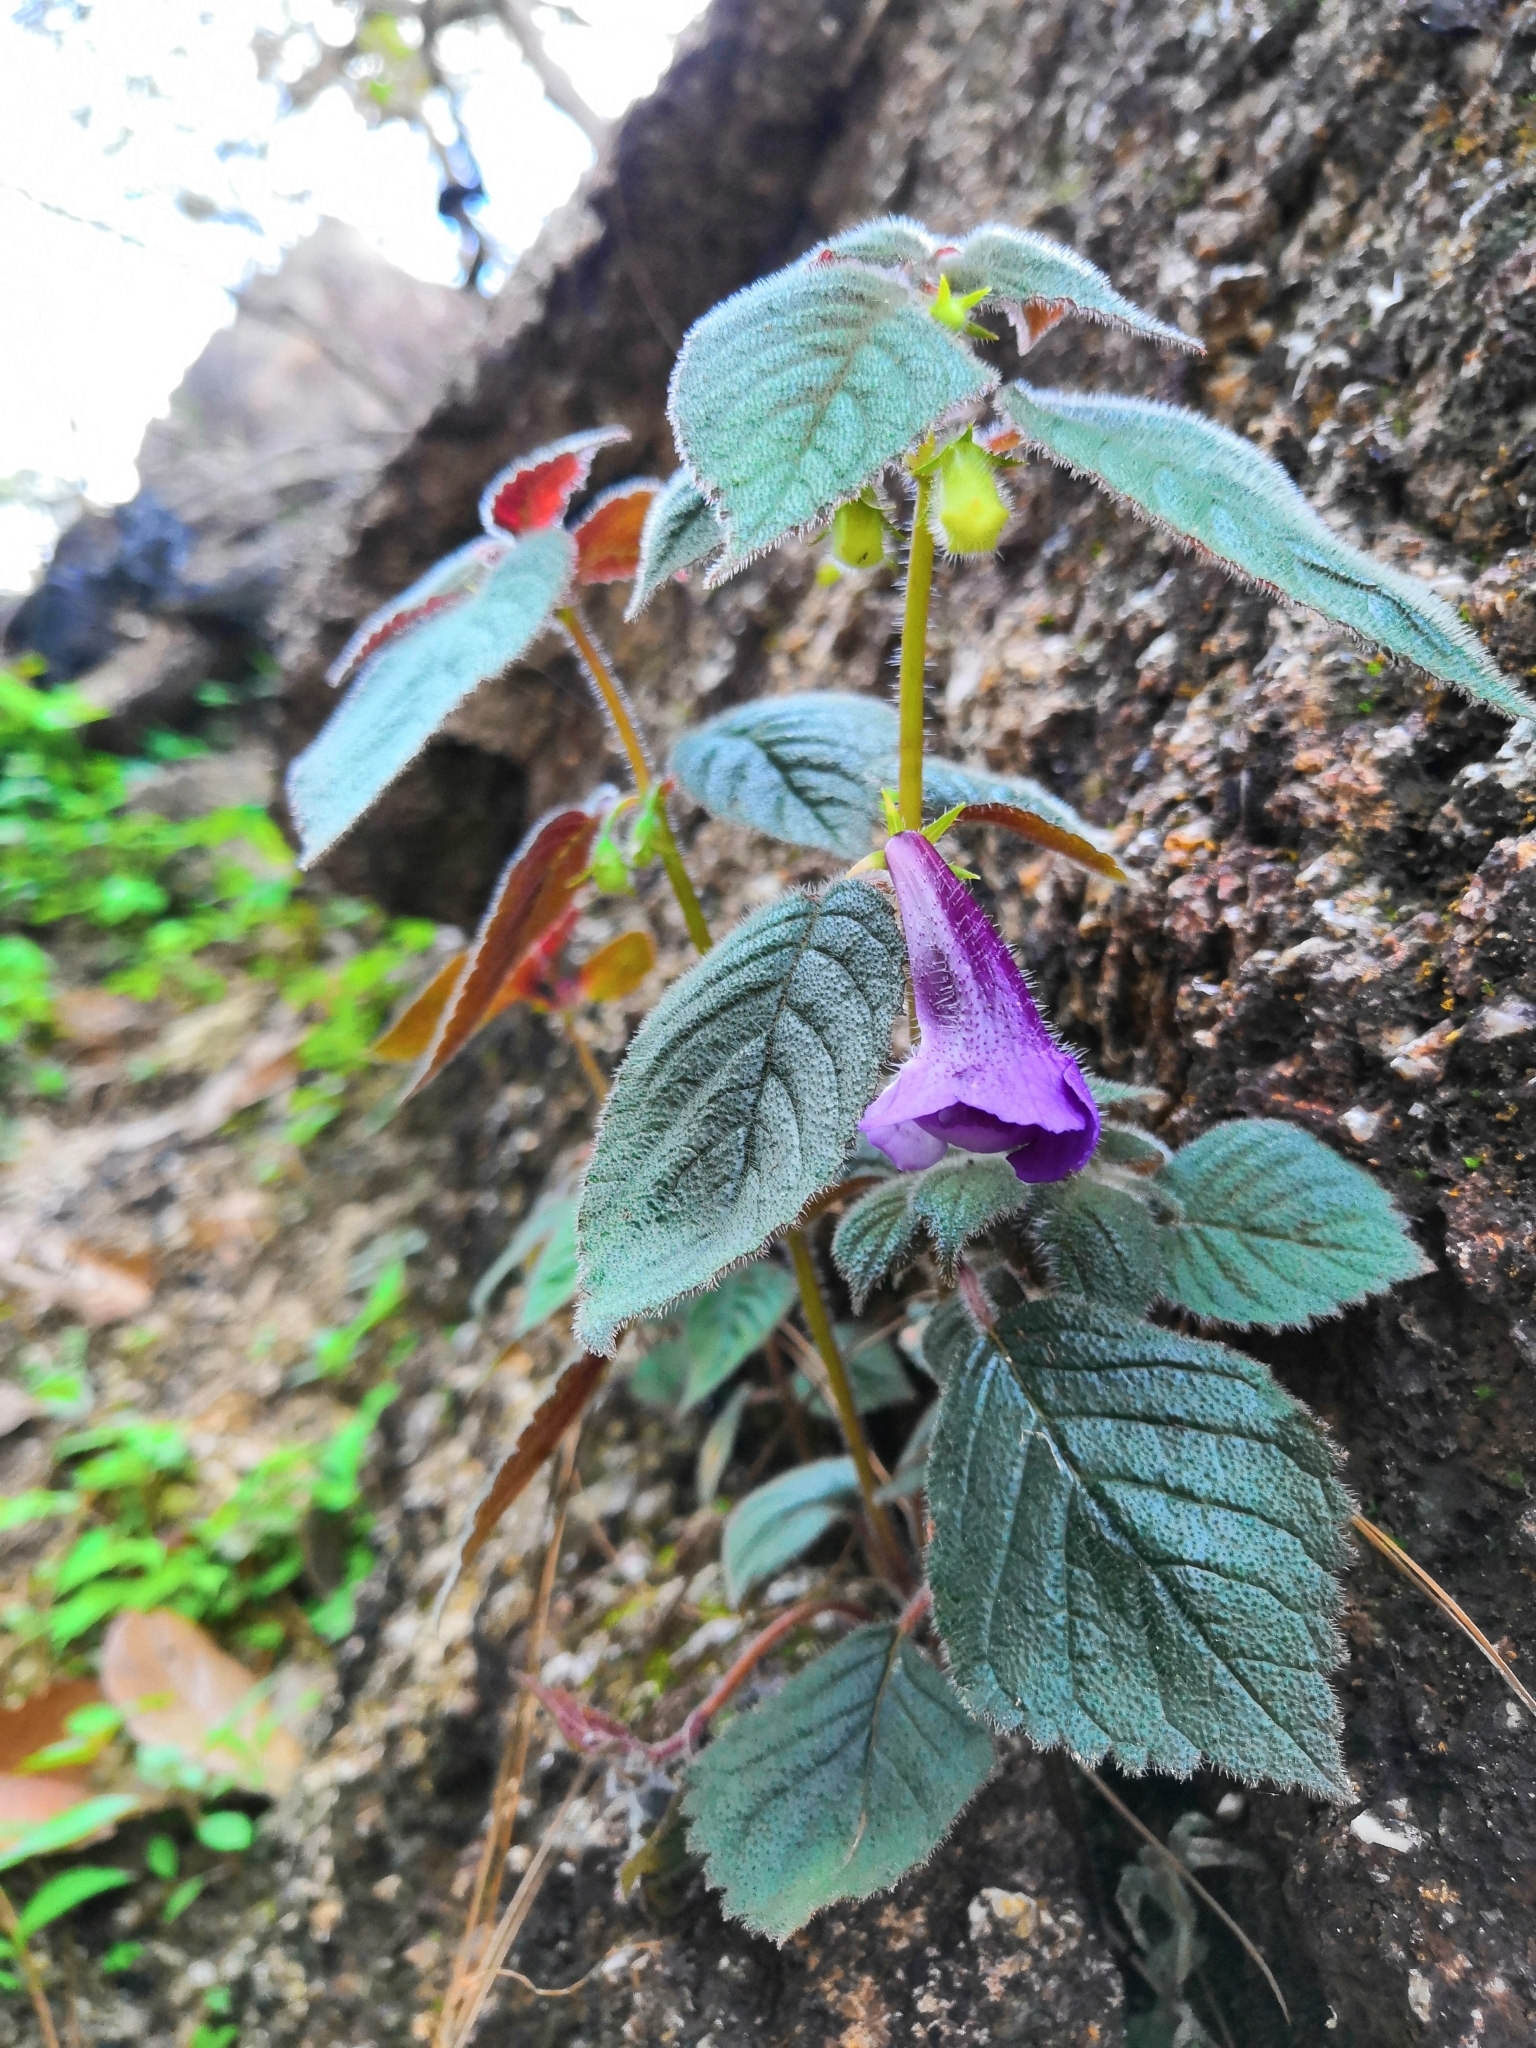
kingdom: Plantae
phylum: Tracheophyta
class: Magnoliopsida
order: Lamiales
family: Gesneriaceae
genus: Achimenes
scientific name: Achimenes mexicana
